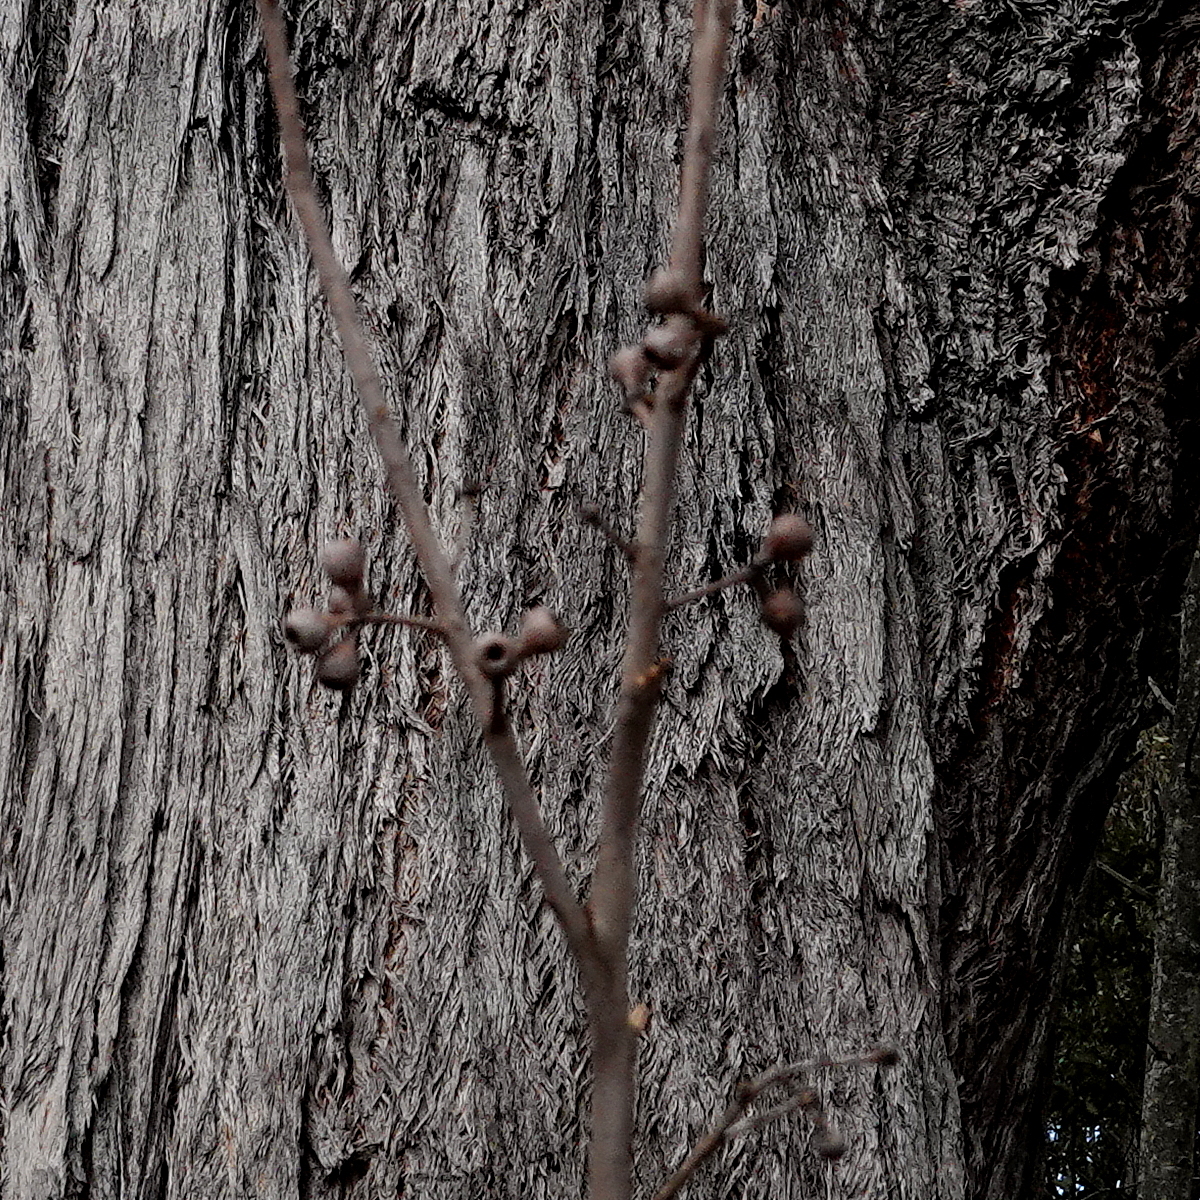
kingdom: Plantae
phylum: Tracheophyta
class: Magnoliopsida
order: Myrtales
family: Myrtaceae
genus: Eucalyptus
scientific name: Eucalyptus pilularis
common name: Blackbutt
